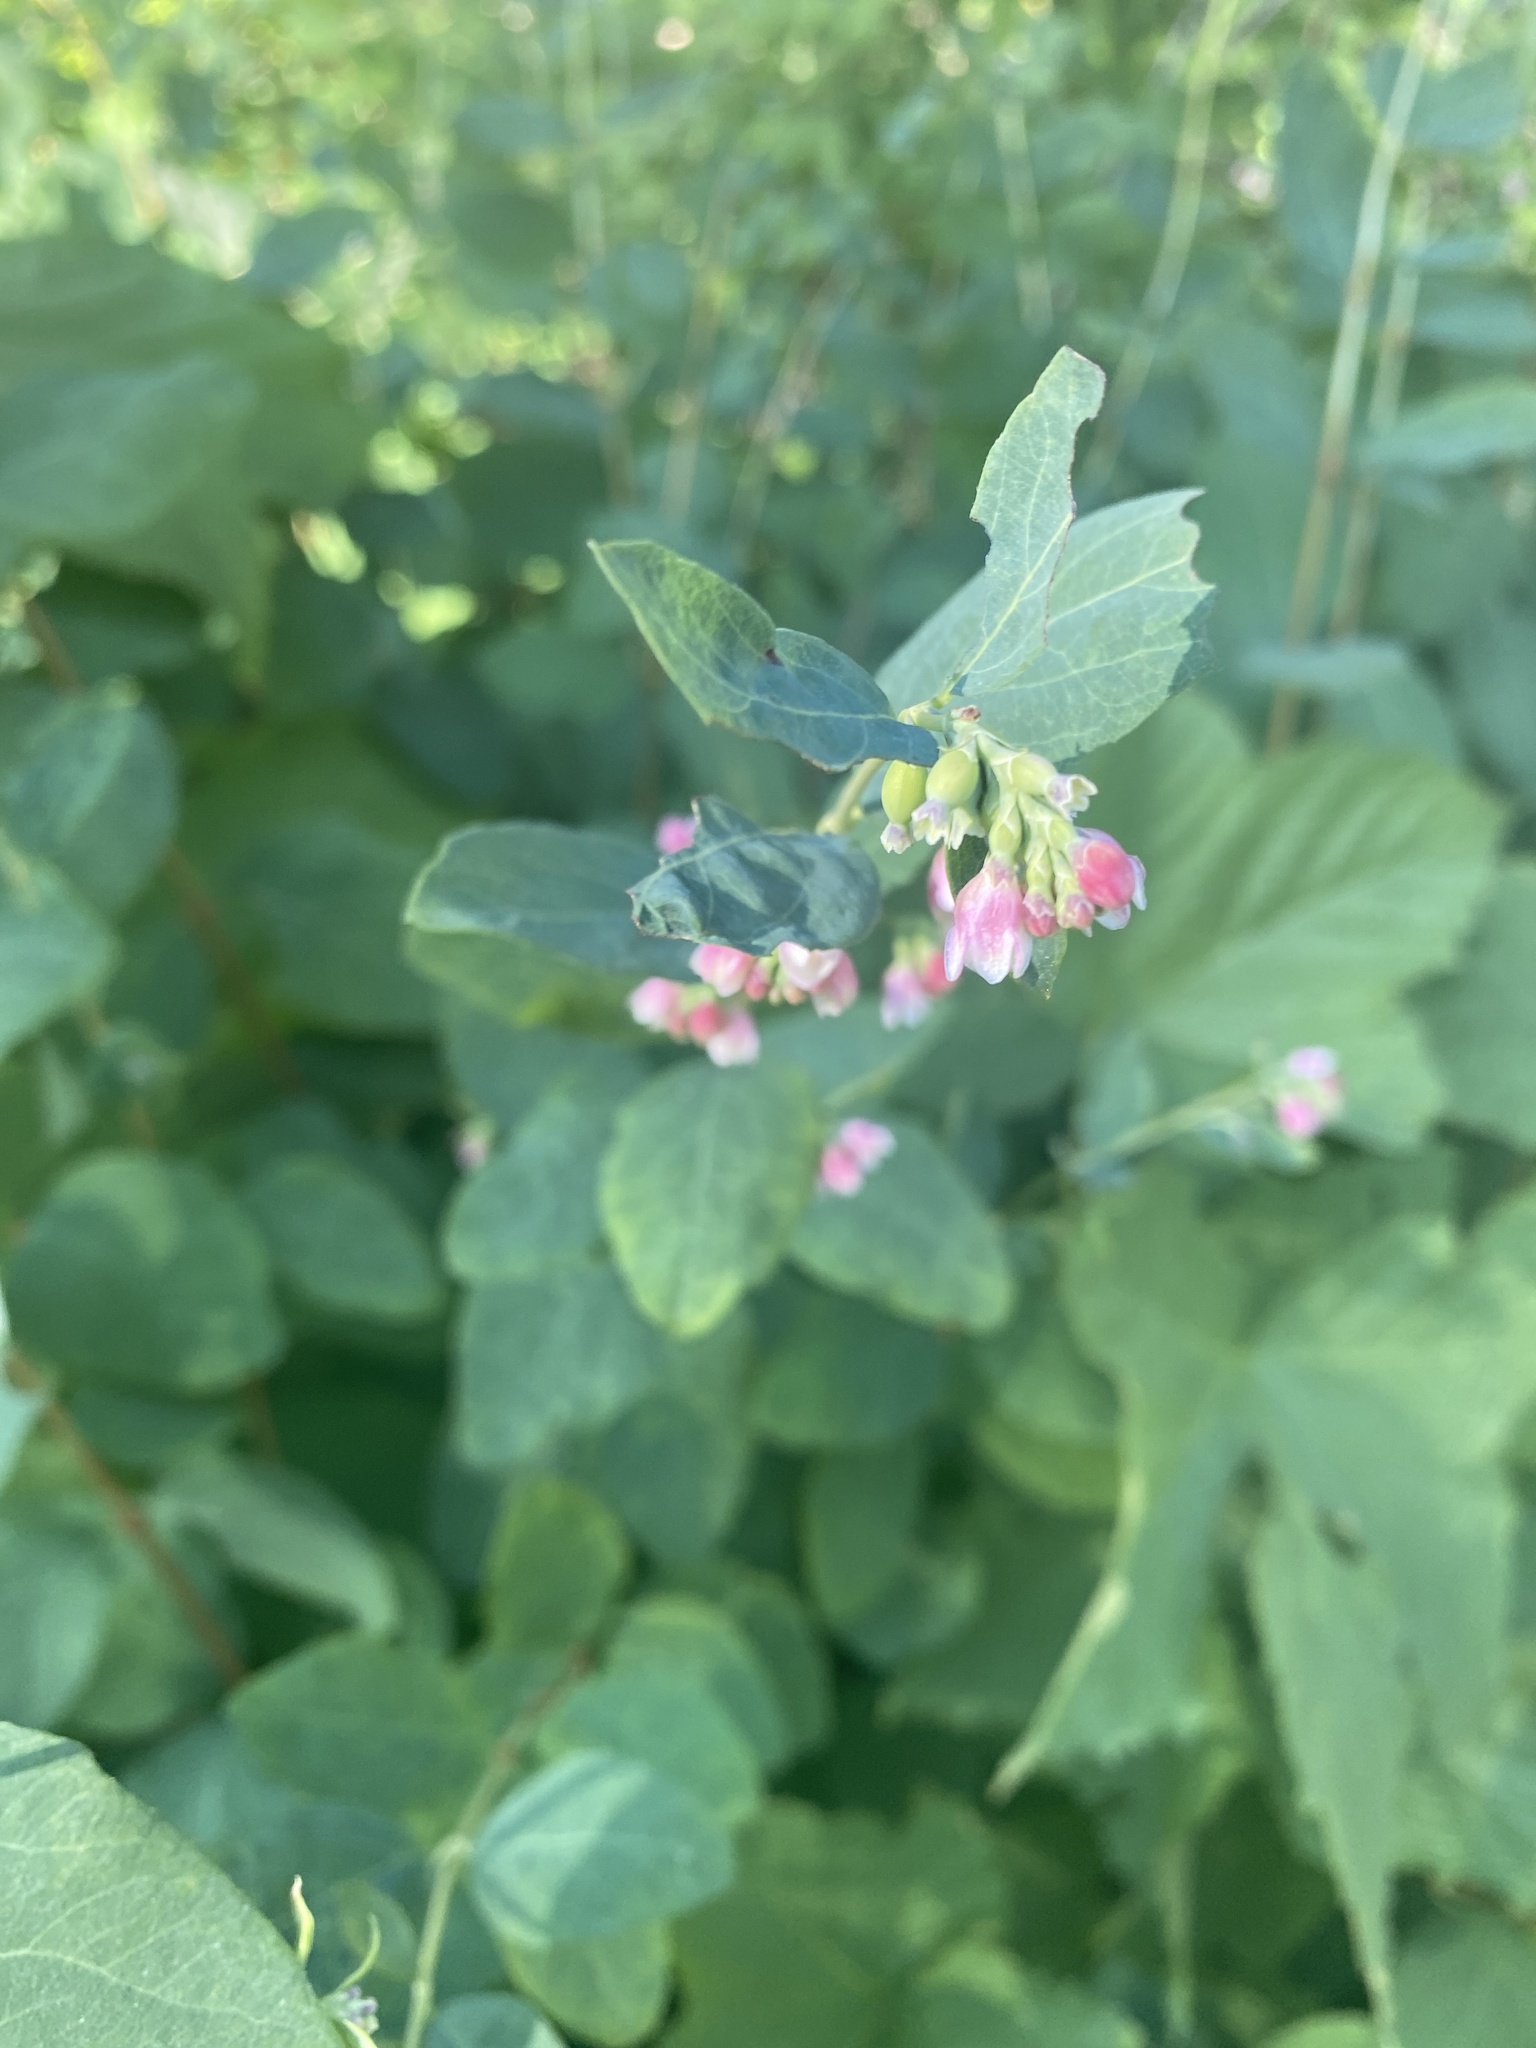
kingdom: Plantae
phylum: Tracheophyta
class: Magnoliopsida
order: Dipsacales
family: Caprifoliaceae
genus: Symphoricarpos
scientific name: Symphoricarpos albus
